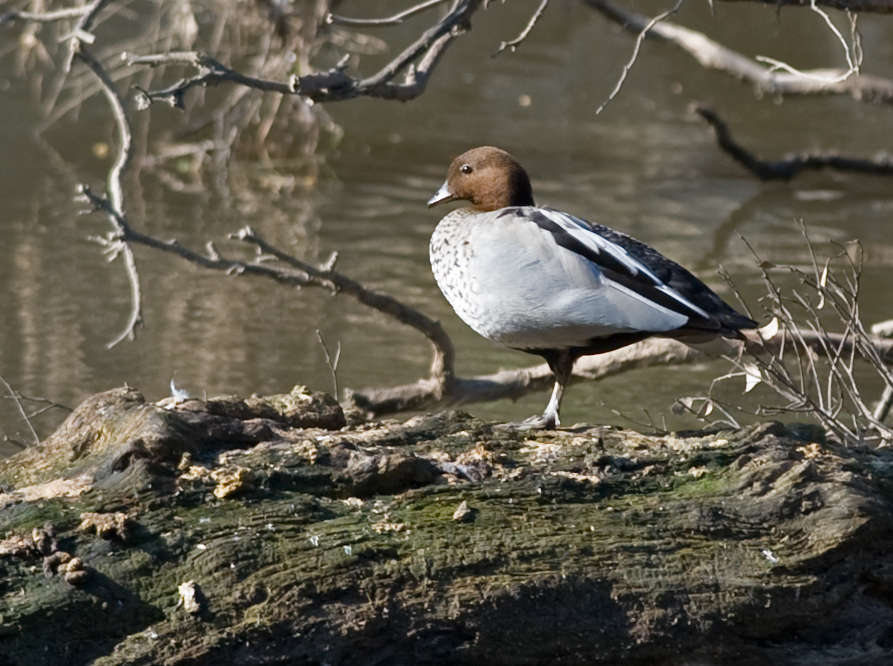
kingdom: Animalia
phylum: Chordata
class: Aves
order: Anseriformes
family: Anatidae
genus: Chenonetta
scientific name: Chenonetta jubata
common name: Maned duck
